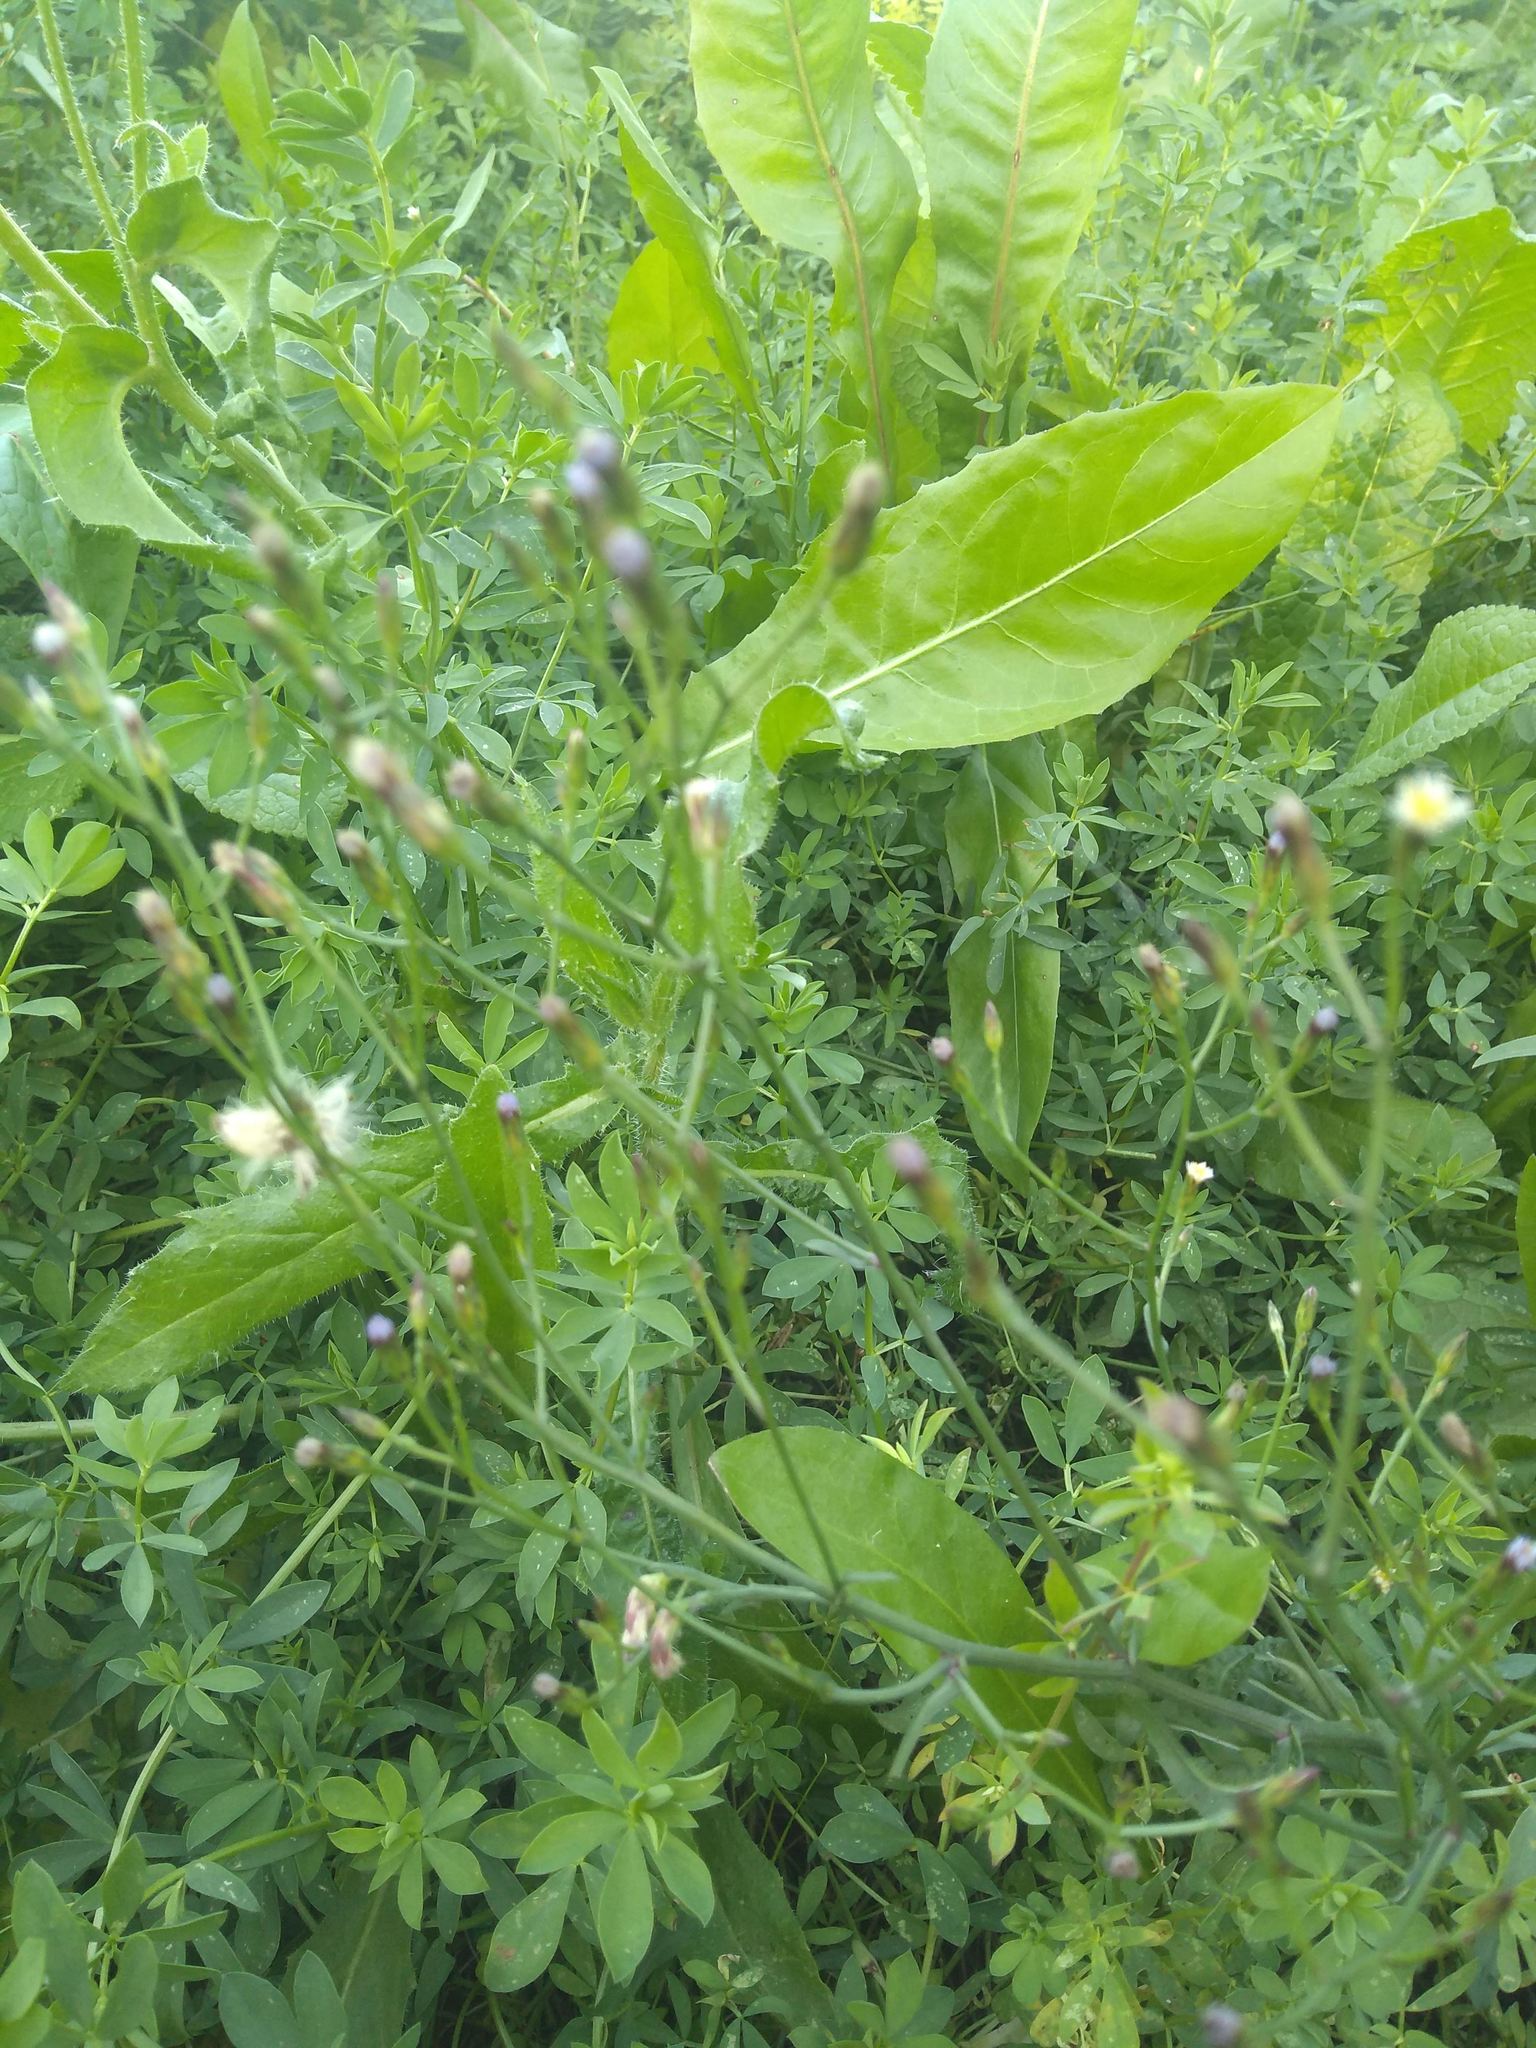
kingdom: Plantae
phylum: Tracheophyta
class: Magnoliopsida
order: Asterales
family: Asteraceae
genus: Symphyotrichum
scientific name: Symphyotrichum squamatum
